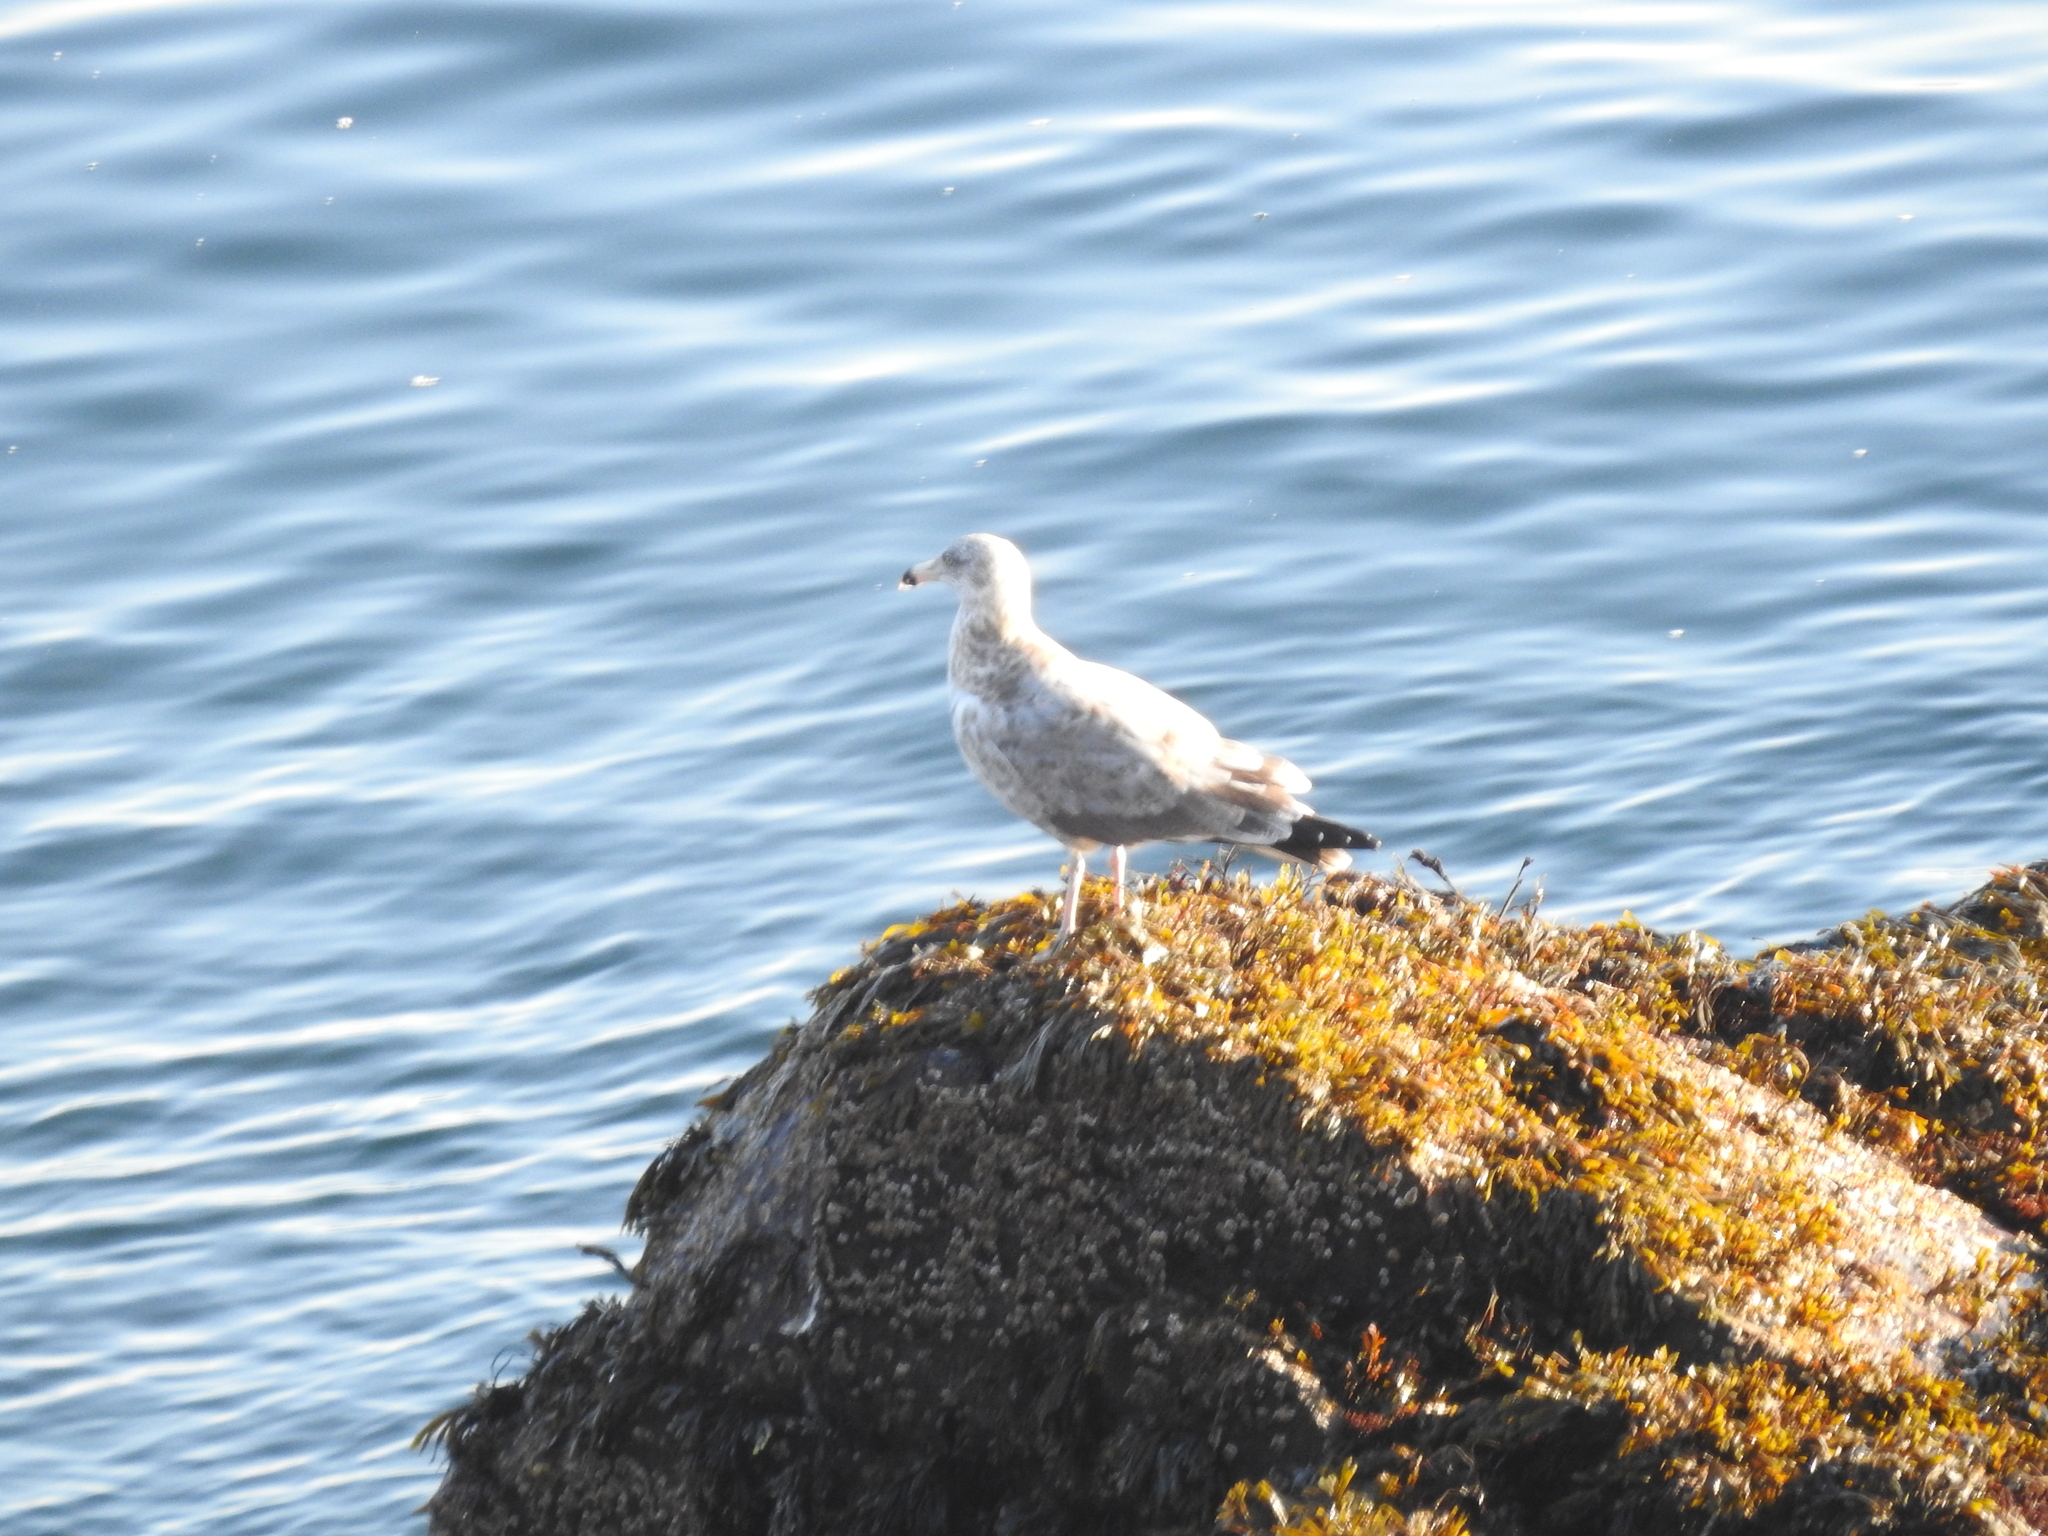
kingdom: Animalia
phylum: Chordata
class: Aves
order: Charadriiformes
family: Laridae
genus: Larus
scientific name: Larus delawarensis
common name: Ring-billed gull
